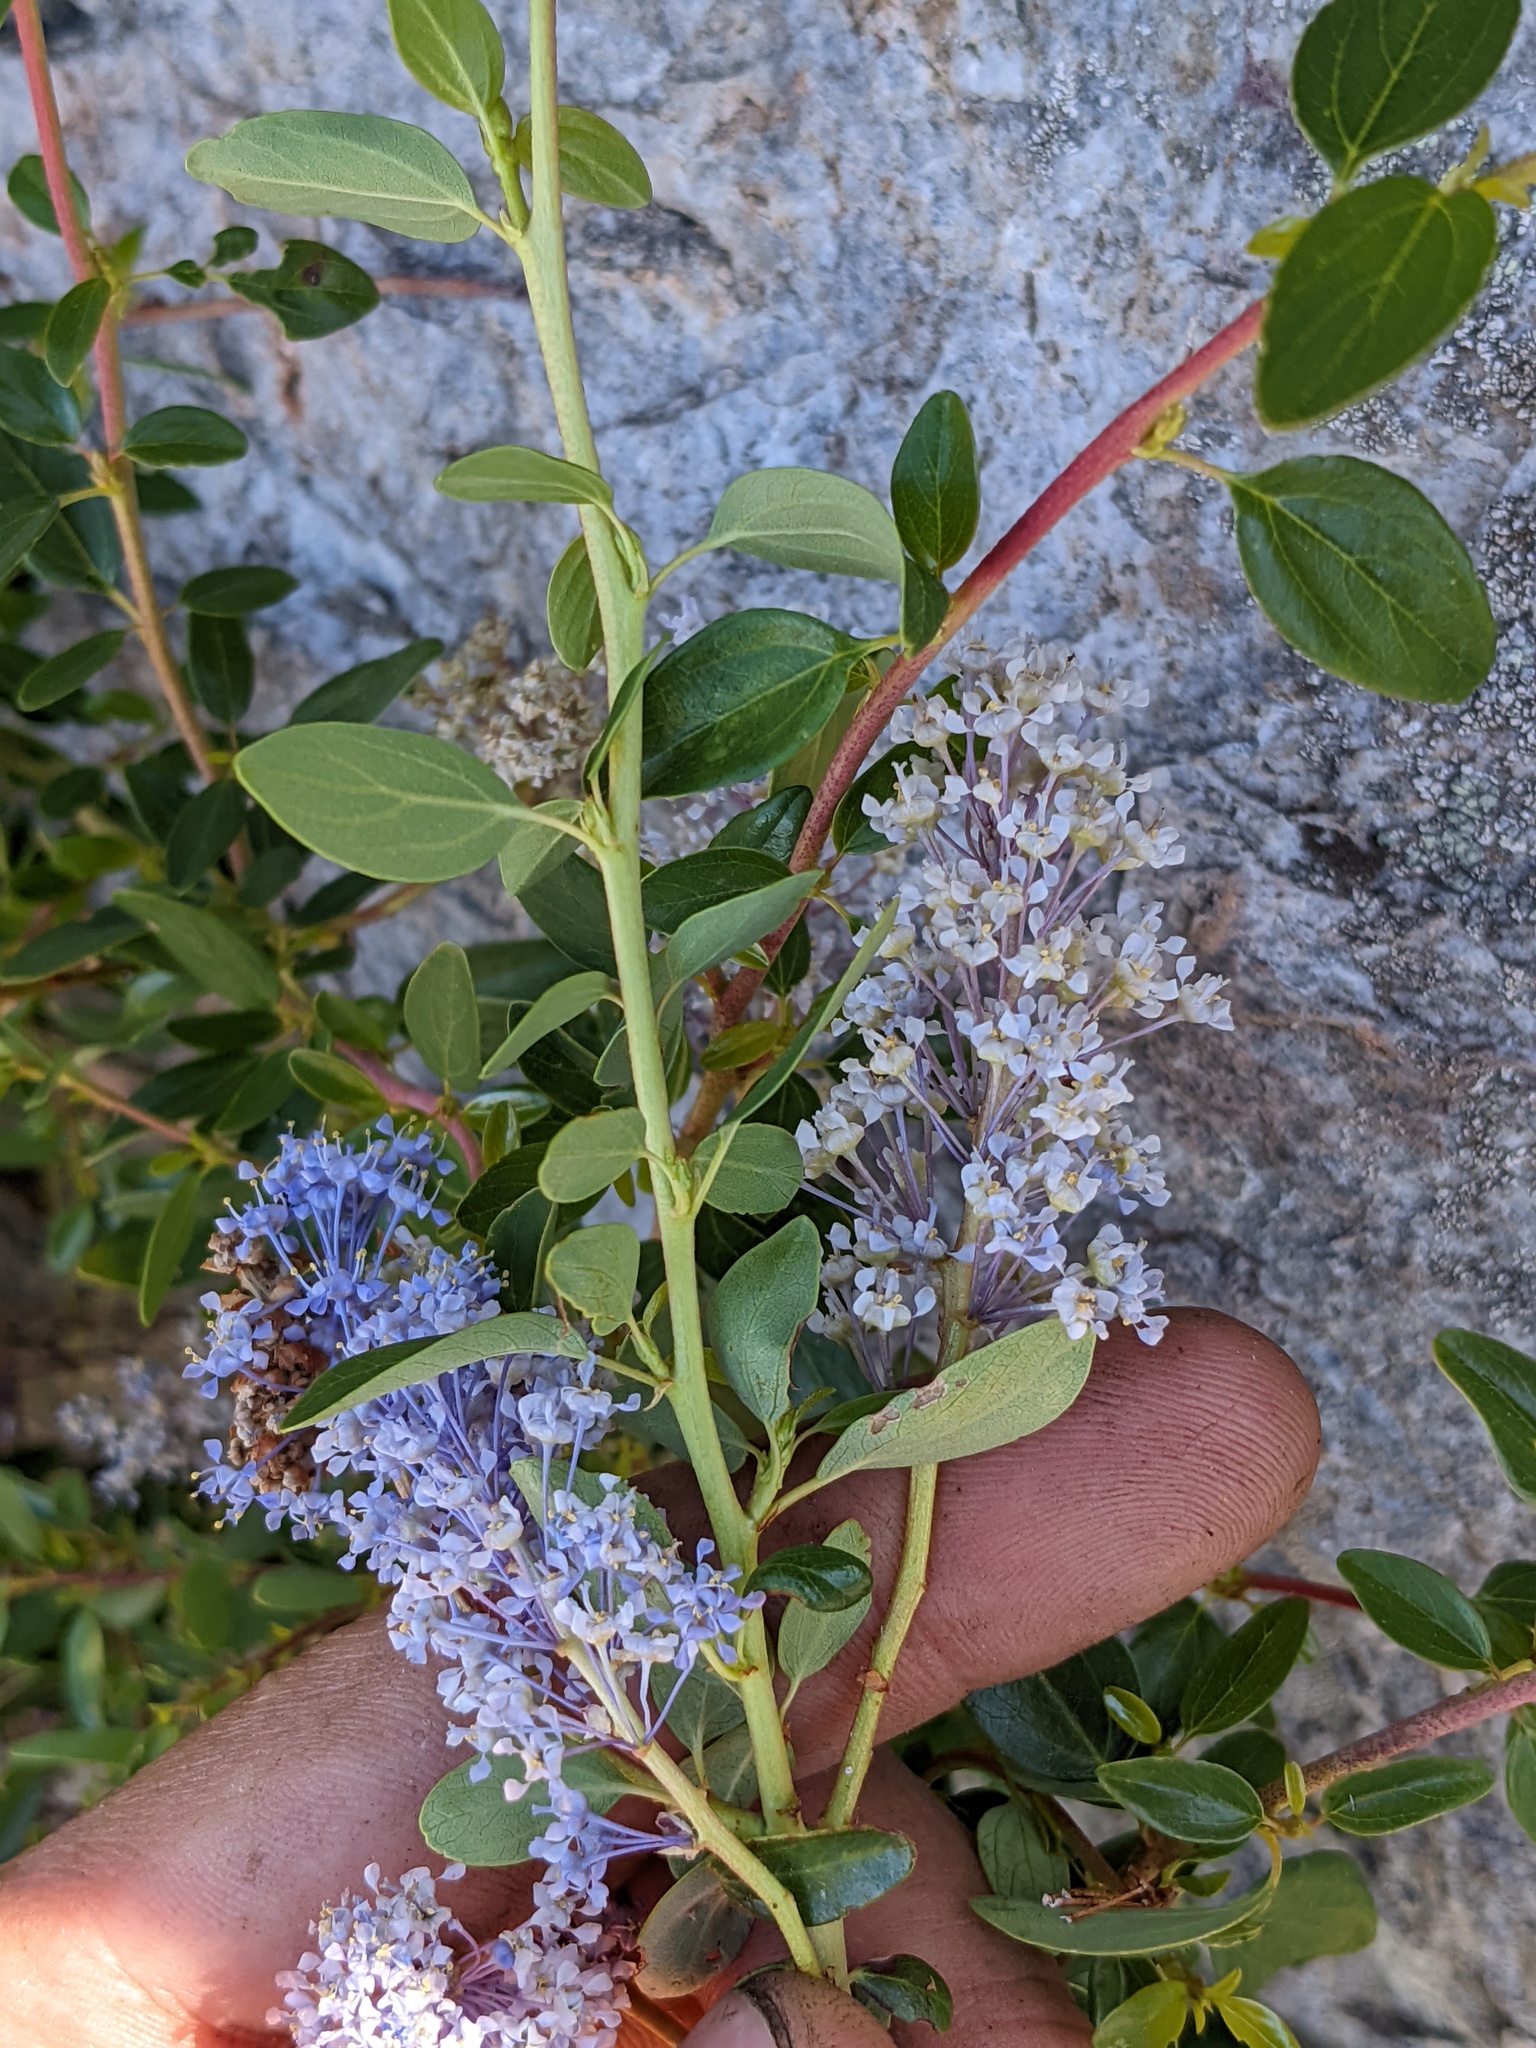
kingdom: Plantae
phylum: Tracheophyta
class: Magnoliopsida
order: Rosales
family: Rhamnaceae
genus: Ceanothus
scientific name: Ceanothus parvifolius
